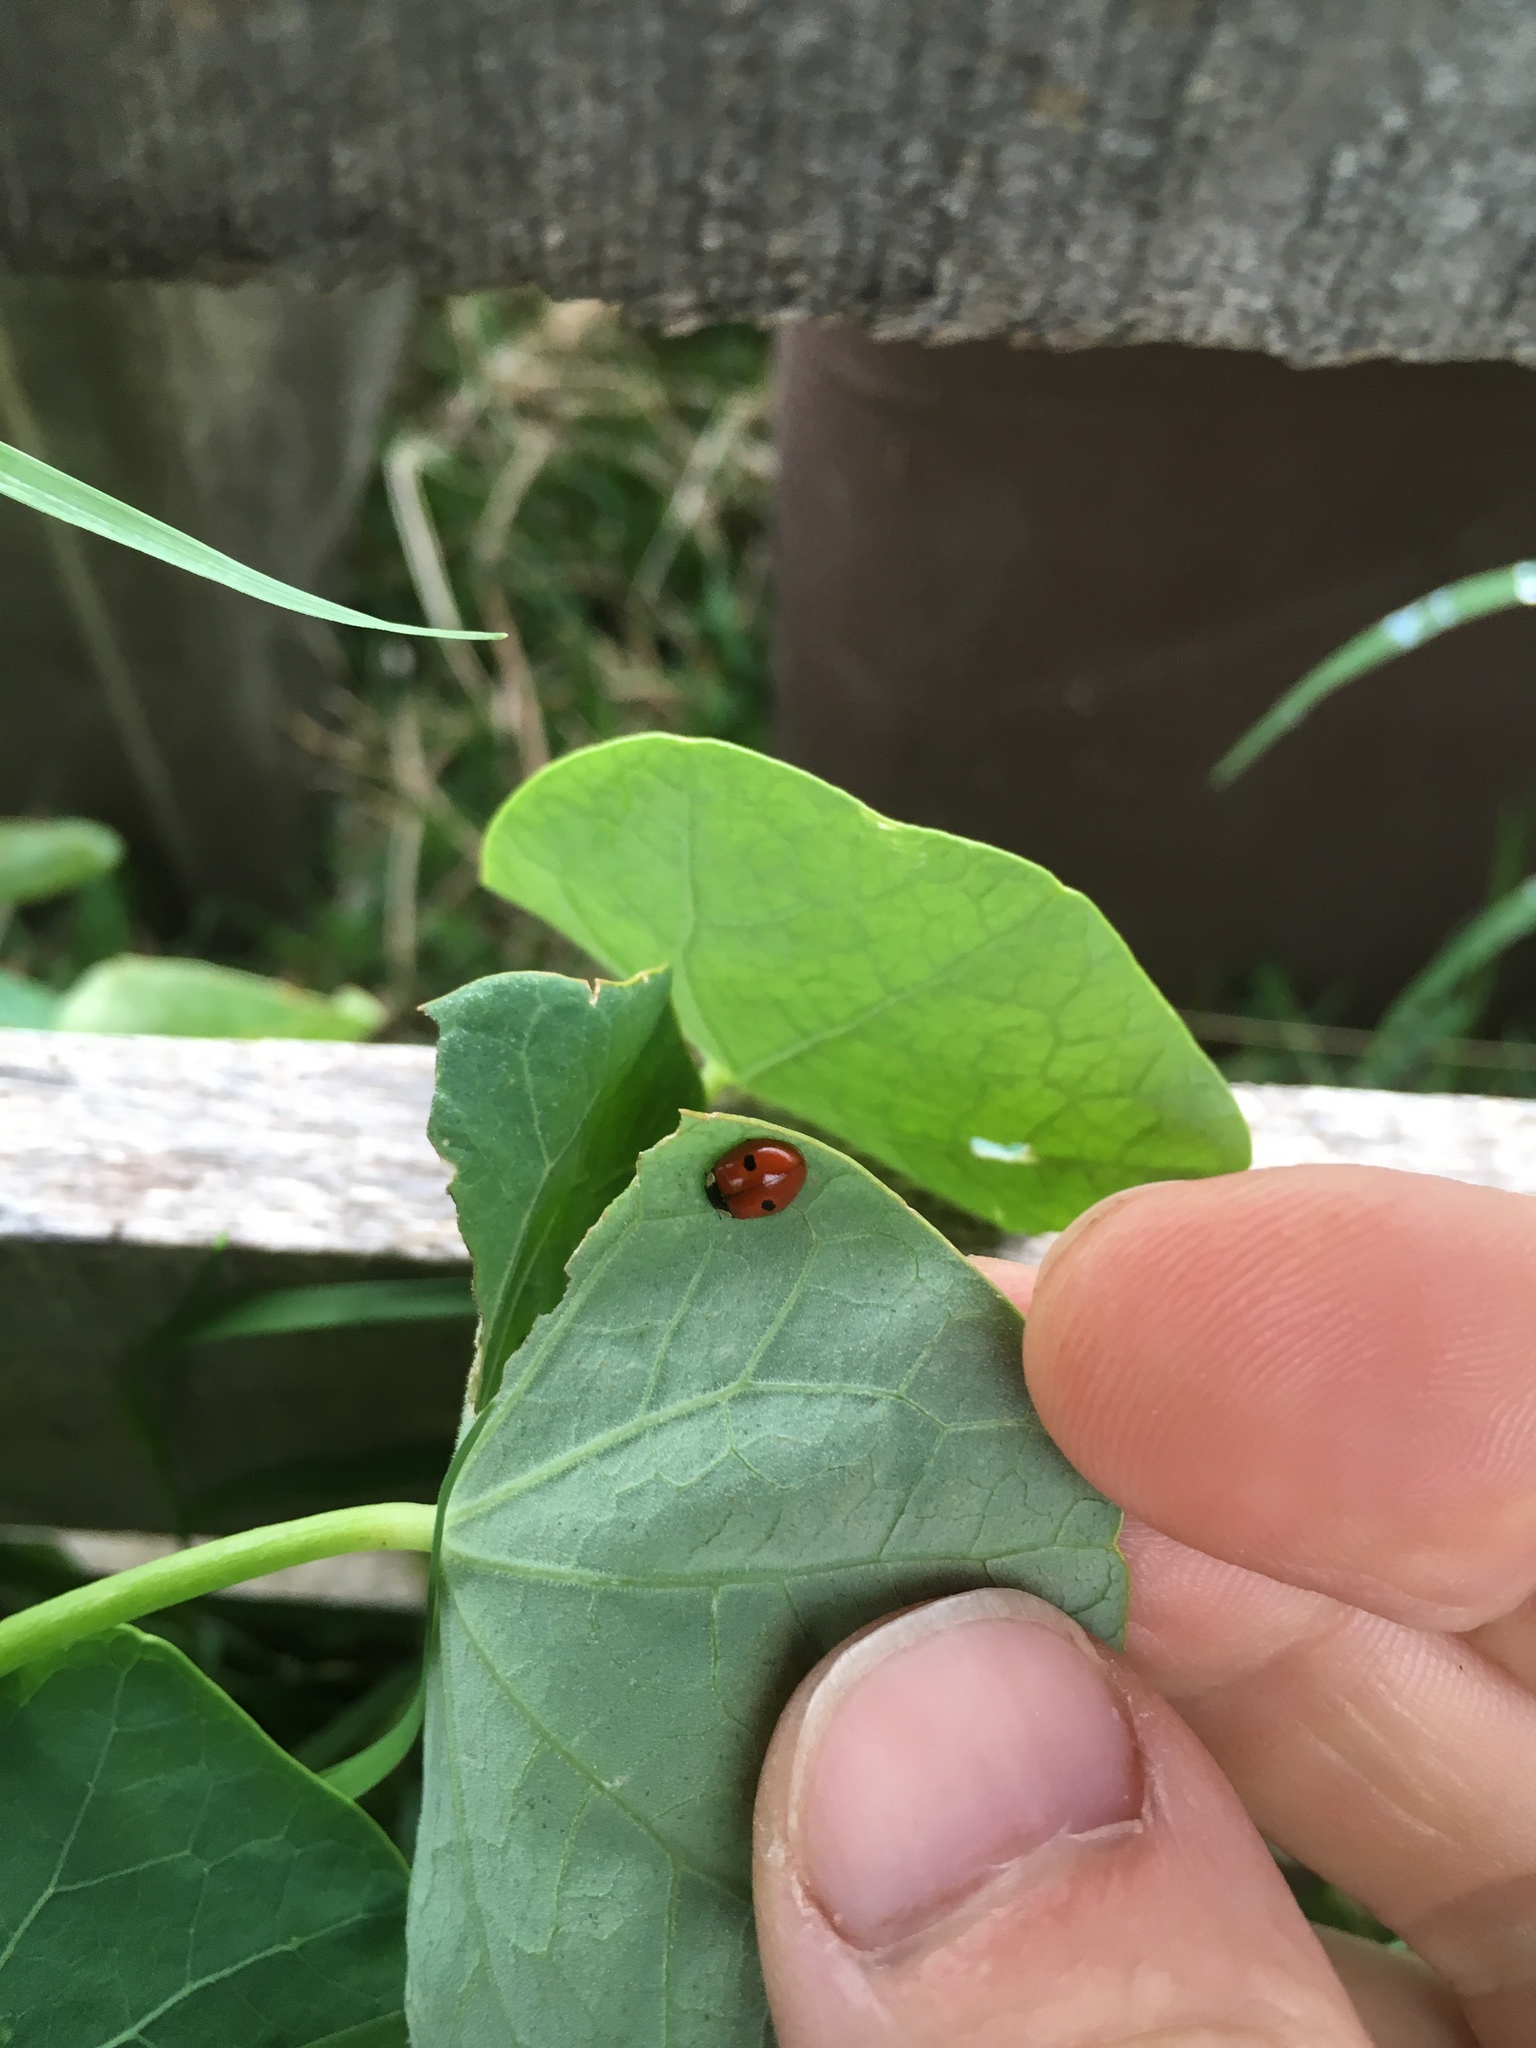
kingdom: Animalia
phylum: Arthropoda
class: Insecta
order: Coleoptera
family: Coccinellidae
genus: Adalia
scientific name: Adalia bipunctata
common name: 2-spot ladybird
